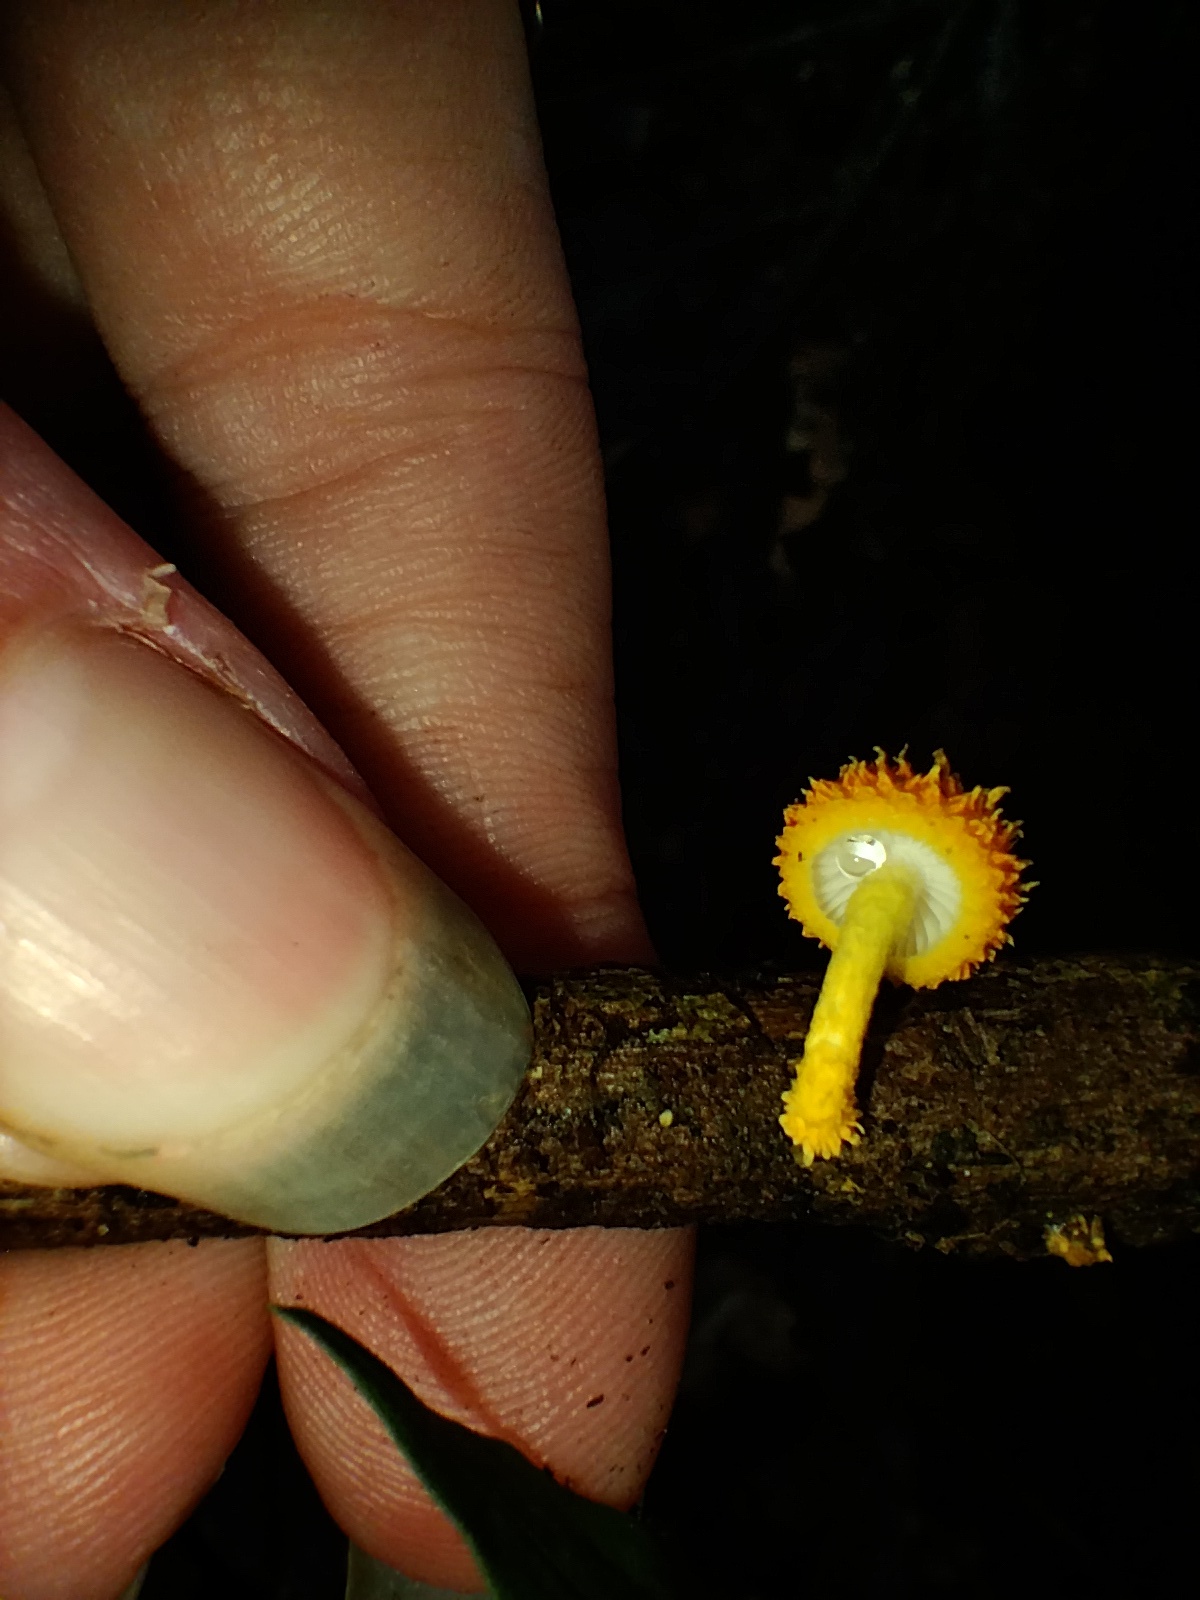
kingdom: Fungi
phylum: Basidiomycota
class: Agaricomycetes
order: Agaricales
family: Physalacriaceae
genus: Cyptotrama
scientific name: Cyptotrama asprata
